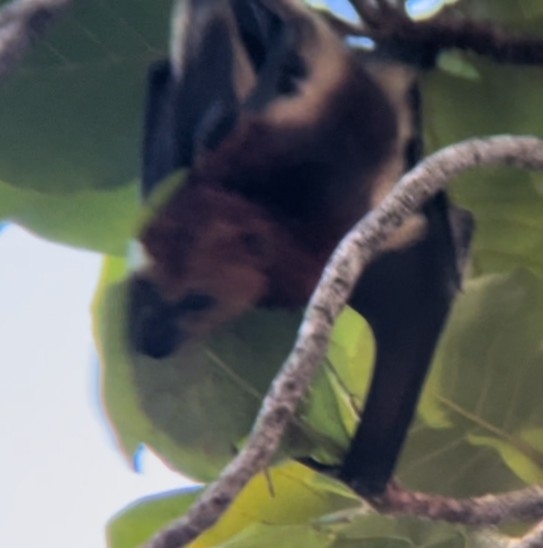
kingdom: Animalia
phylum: Chordata
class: Mammalia
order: Chiroptera
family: Pteropodidae
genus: Pteropus
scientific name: Pteropus niger
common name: Greater mascarene flying fox
